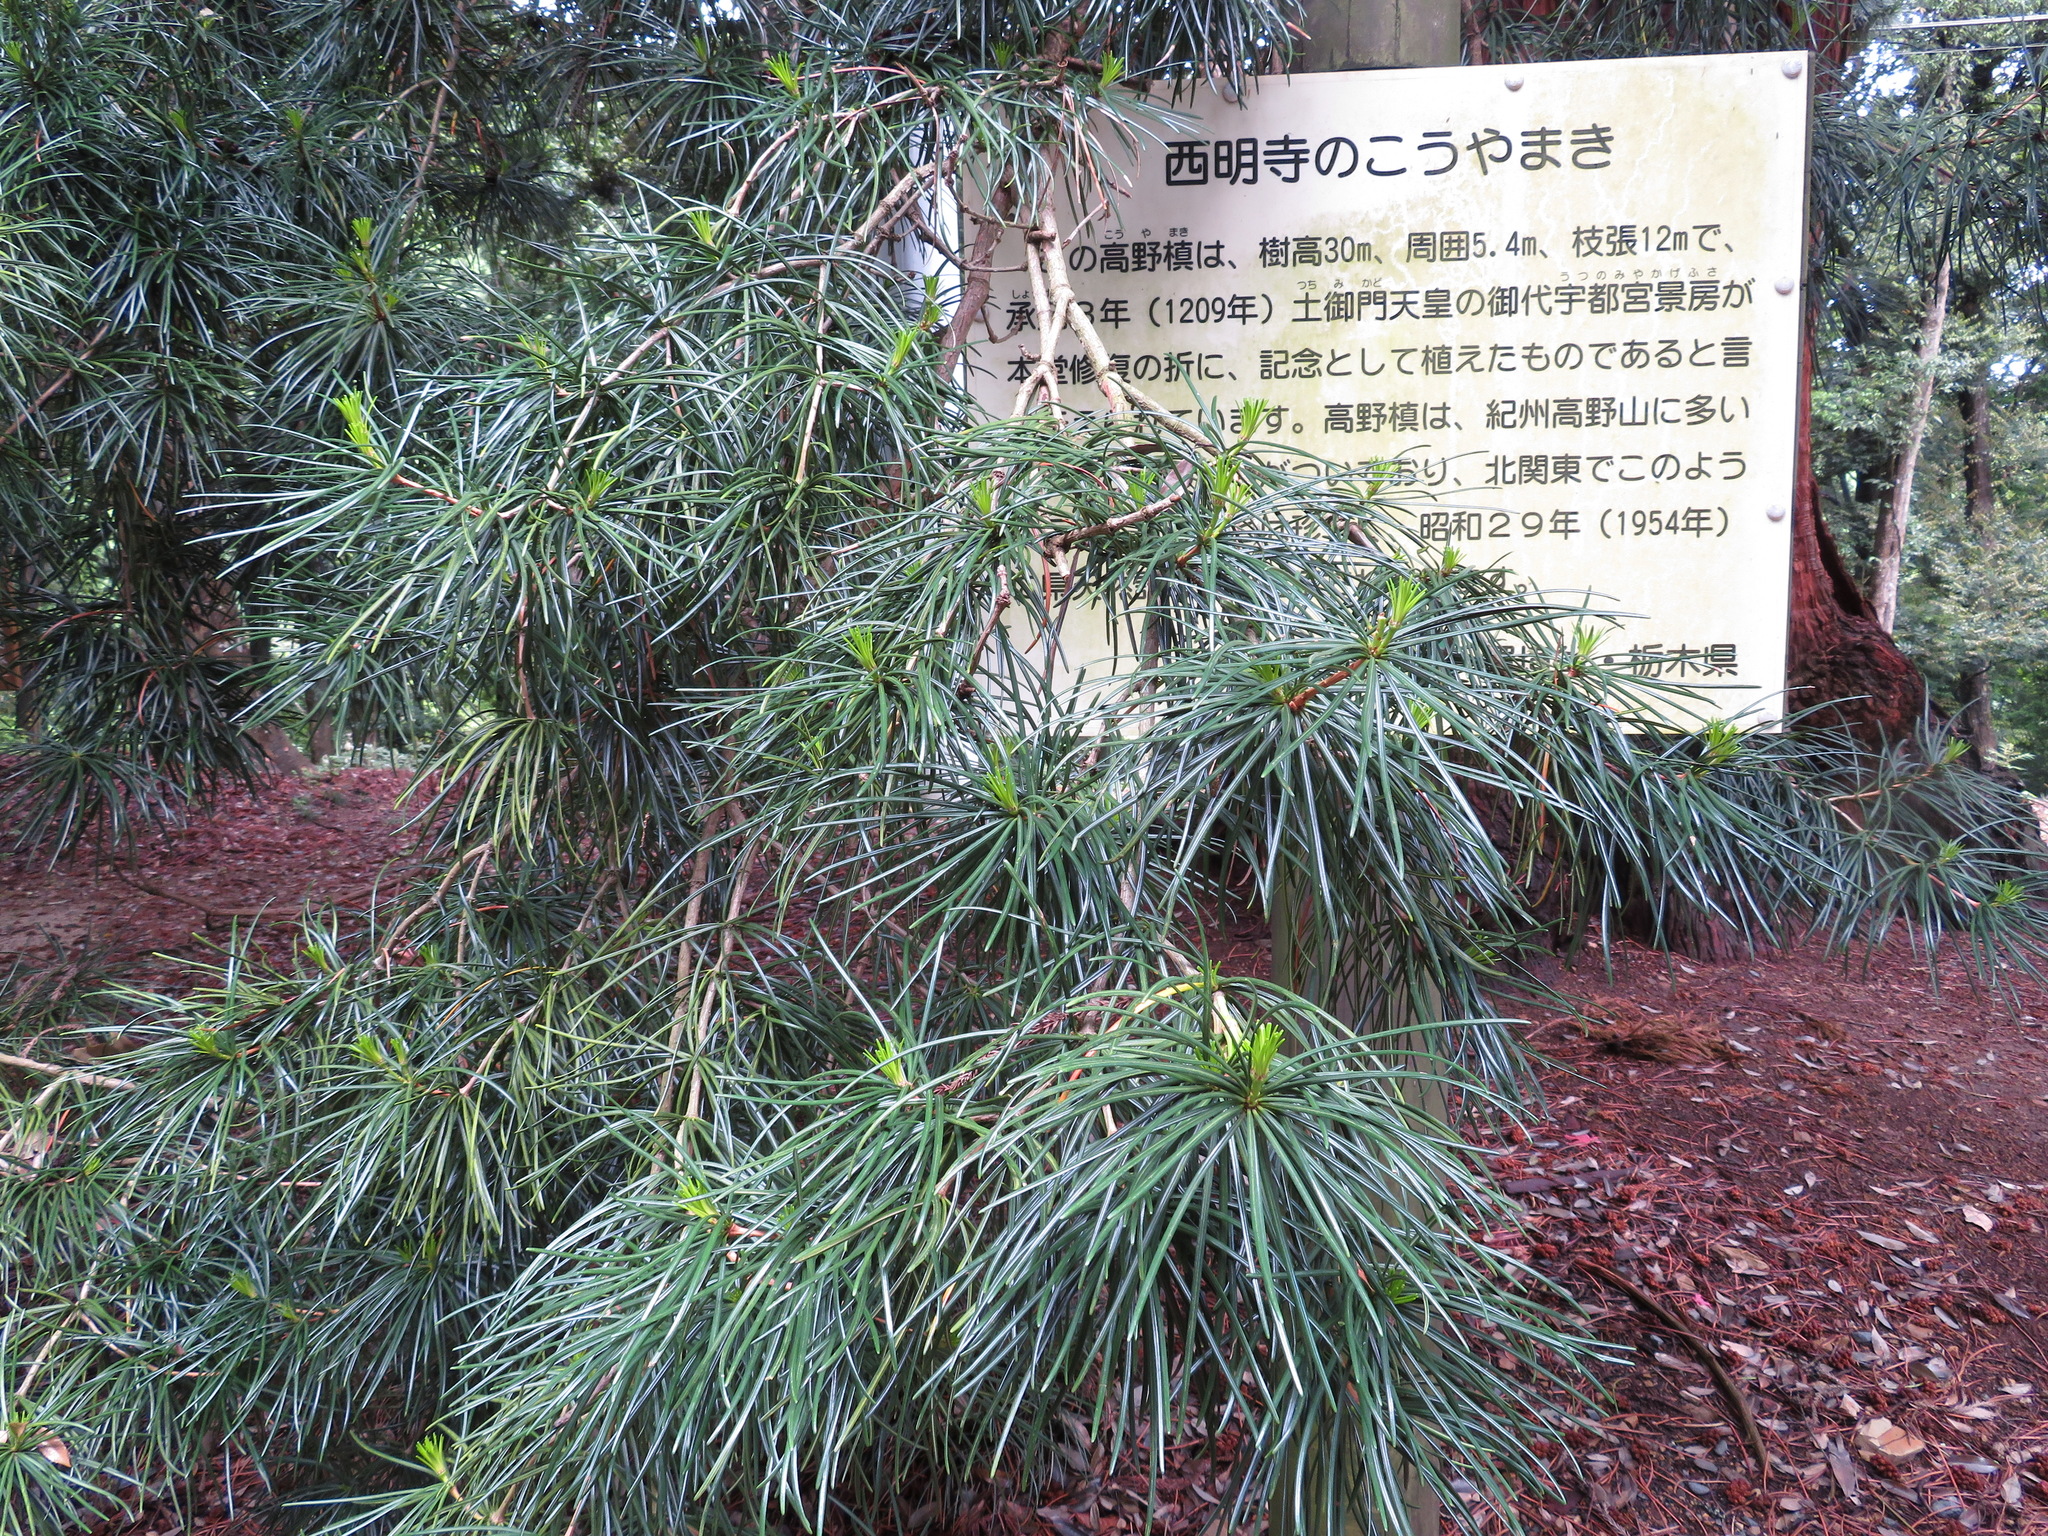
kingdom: Plantae
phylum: Tracheophyta
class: Pinopsida
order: Pinales
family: Sciadopityaceae
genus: Sciadopitys
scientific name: Sciadopitys verticillata
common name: Japanese umbrella pine
